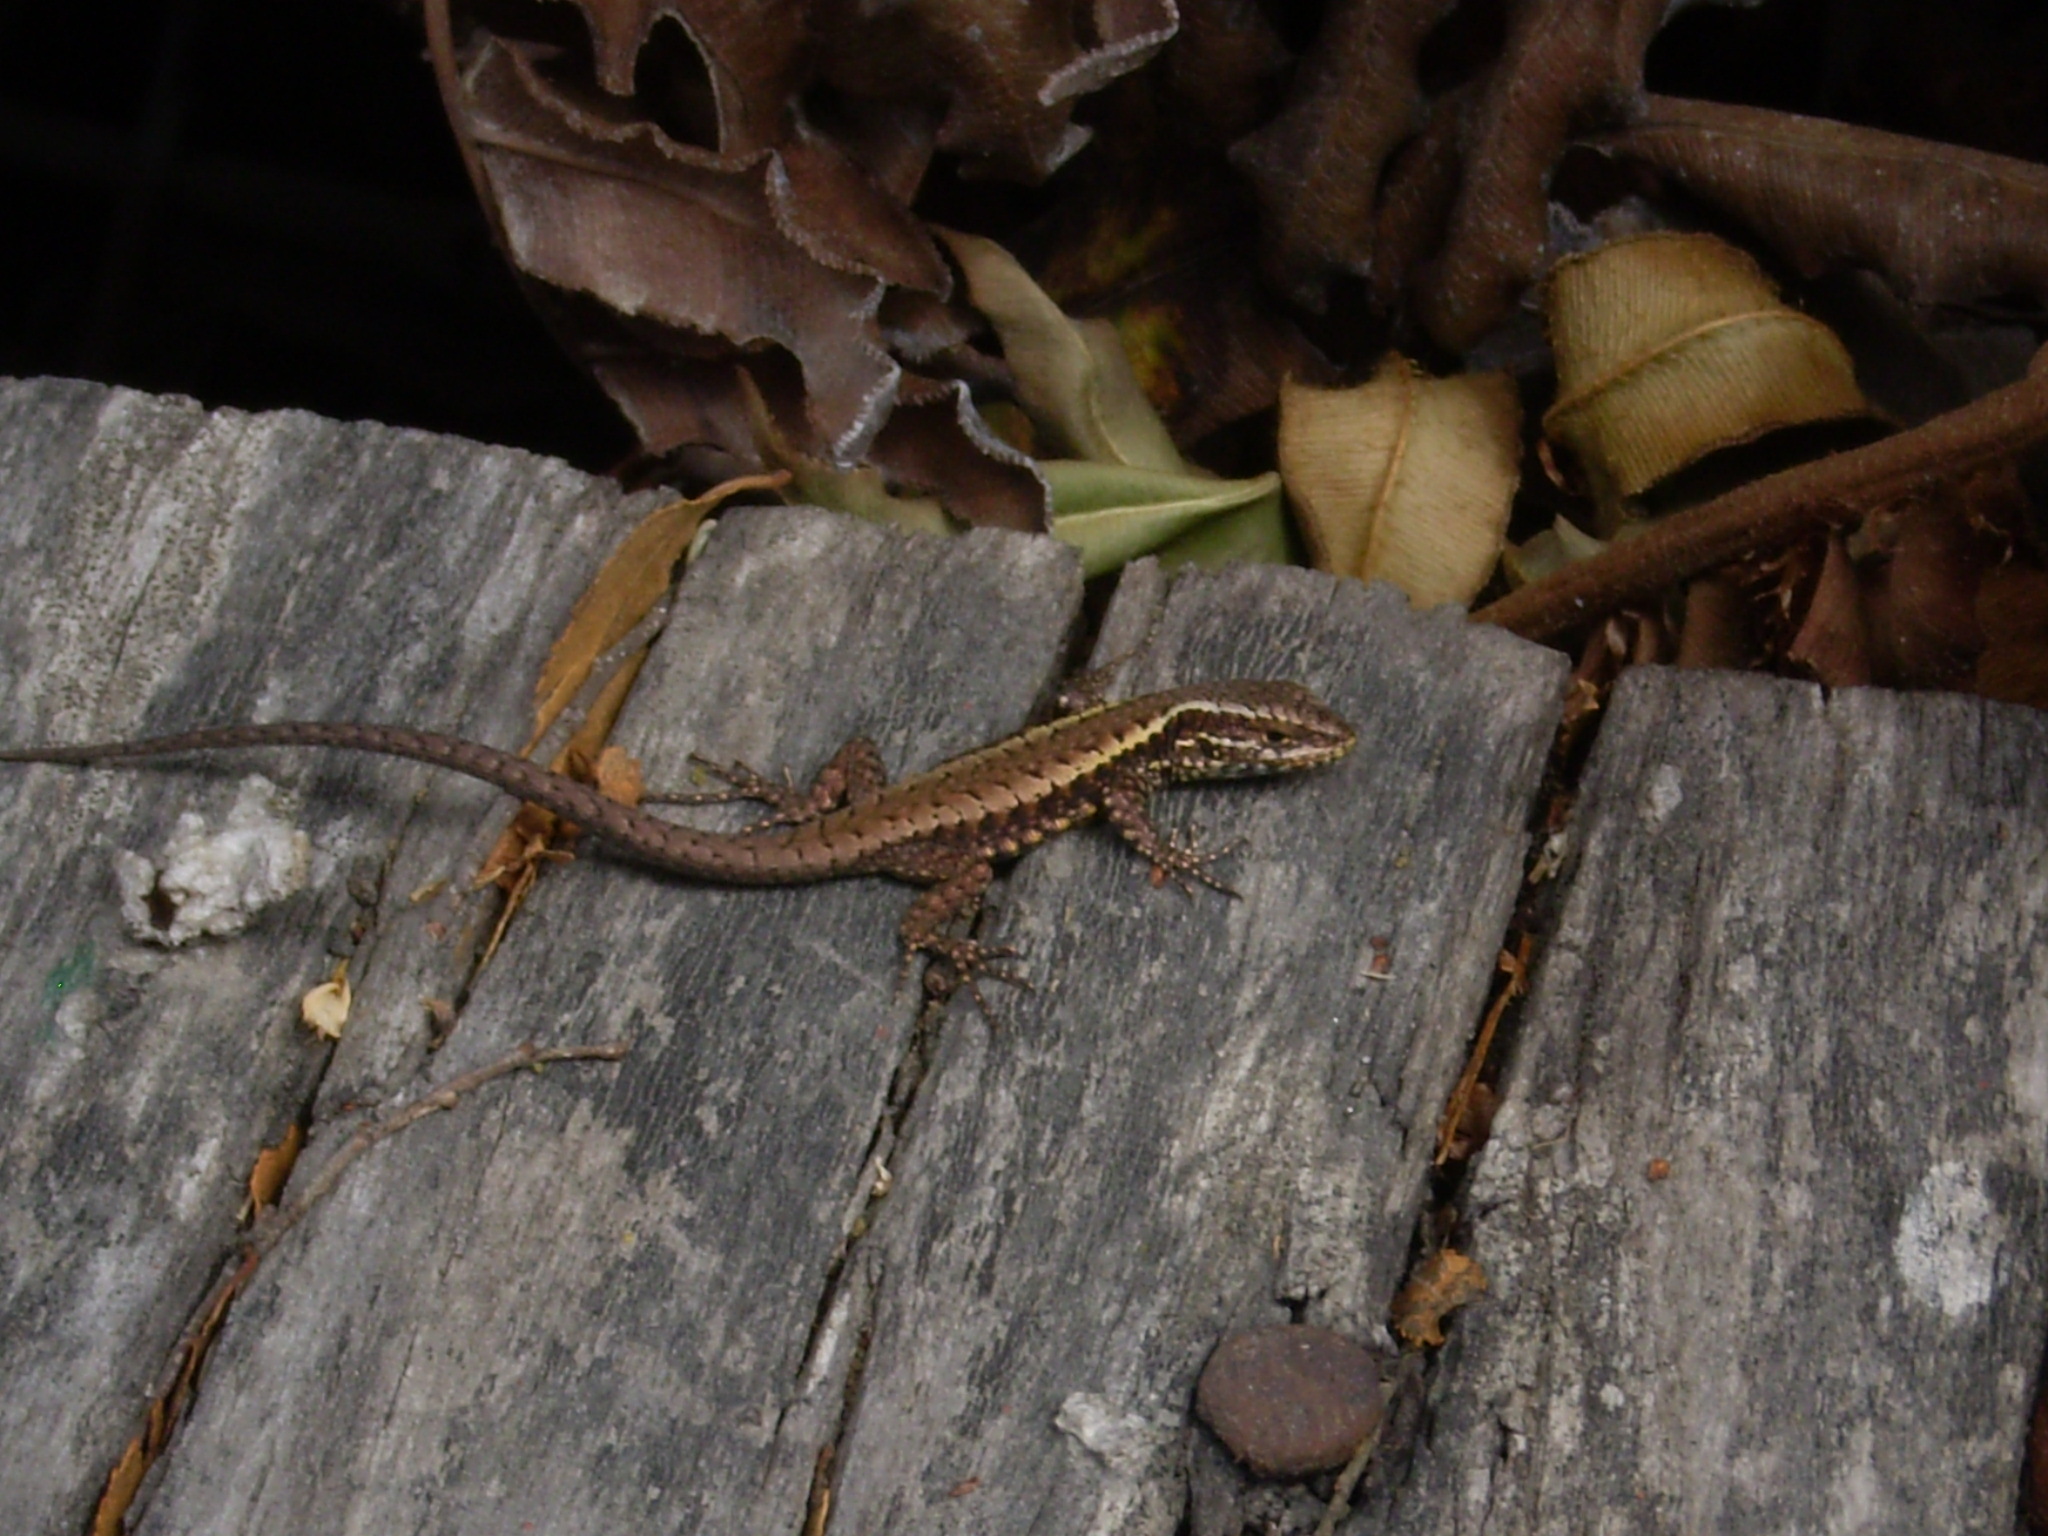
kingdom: Animalia
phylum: Chordata
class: Squamata
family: Liolaemidae
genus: Liolaemus
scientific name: Liolaemus pictus
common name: Painted tree iguana
